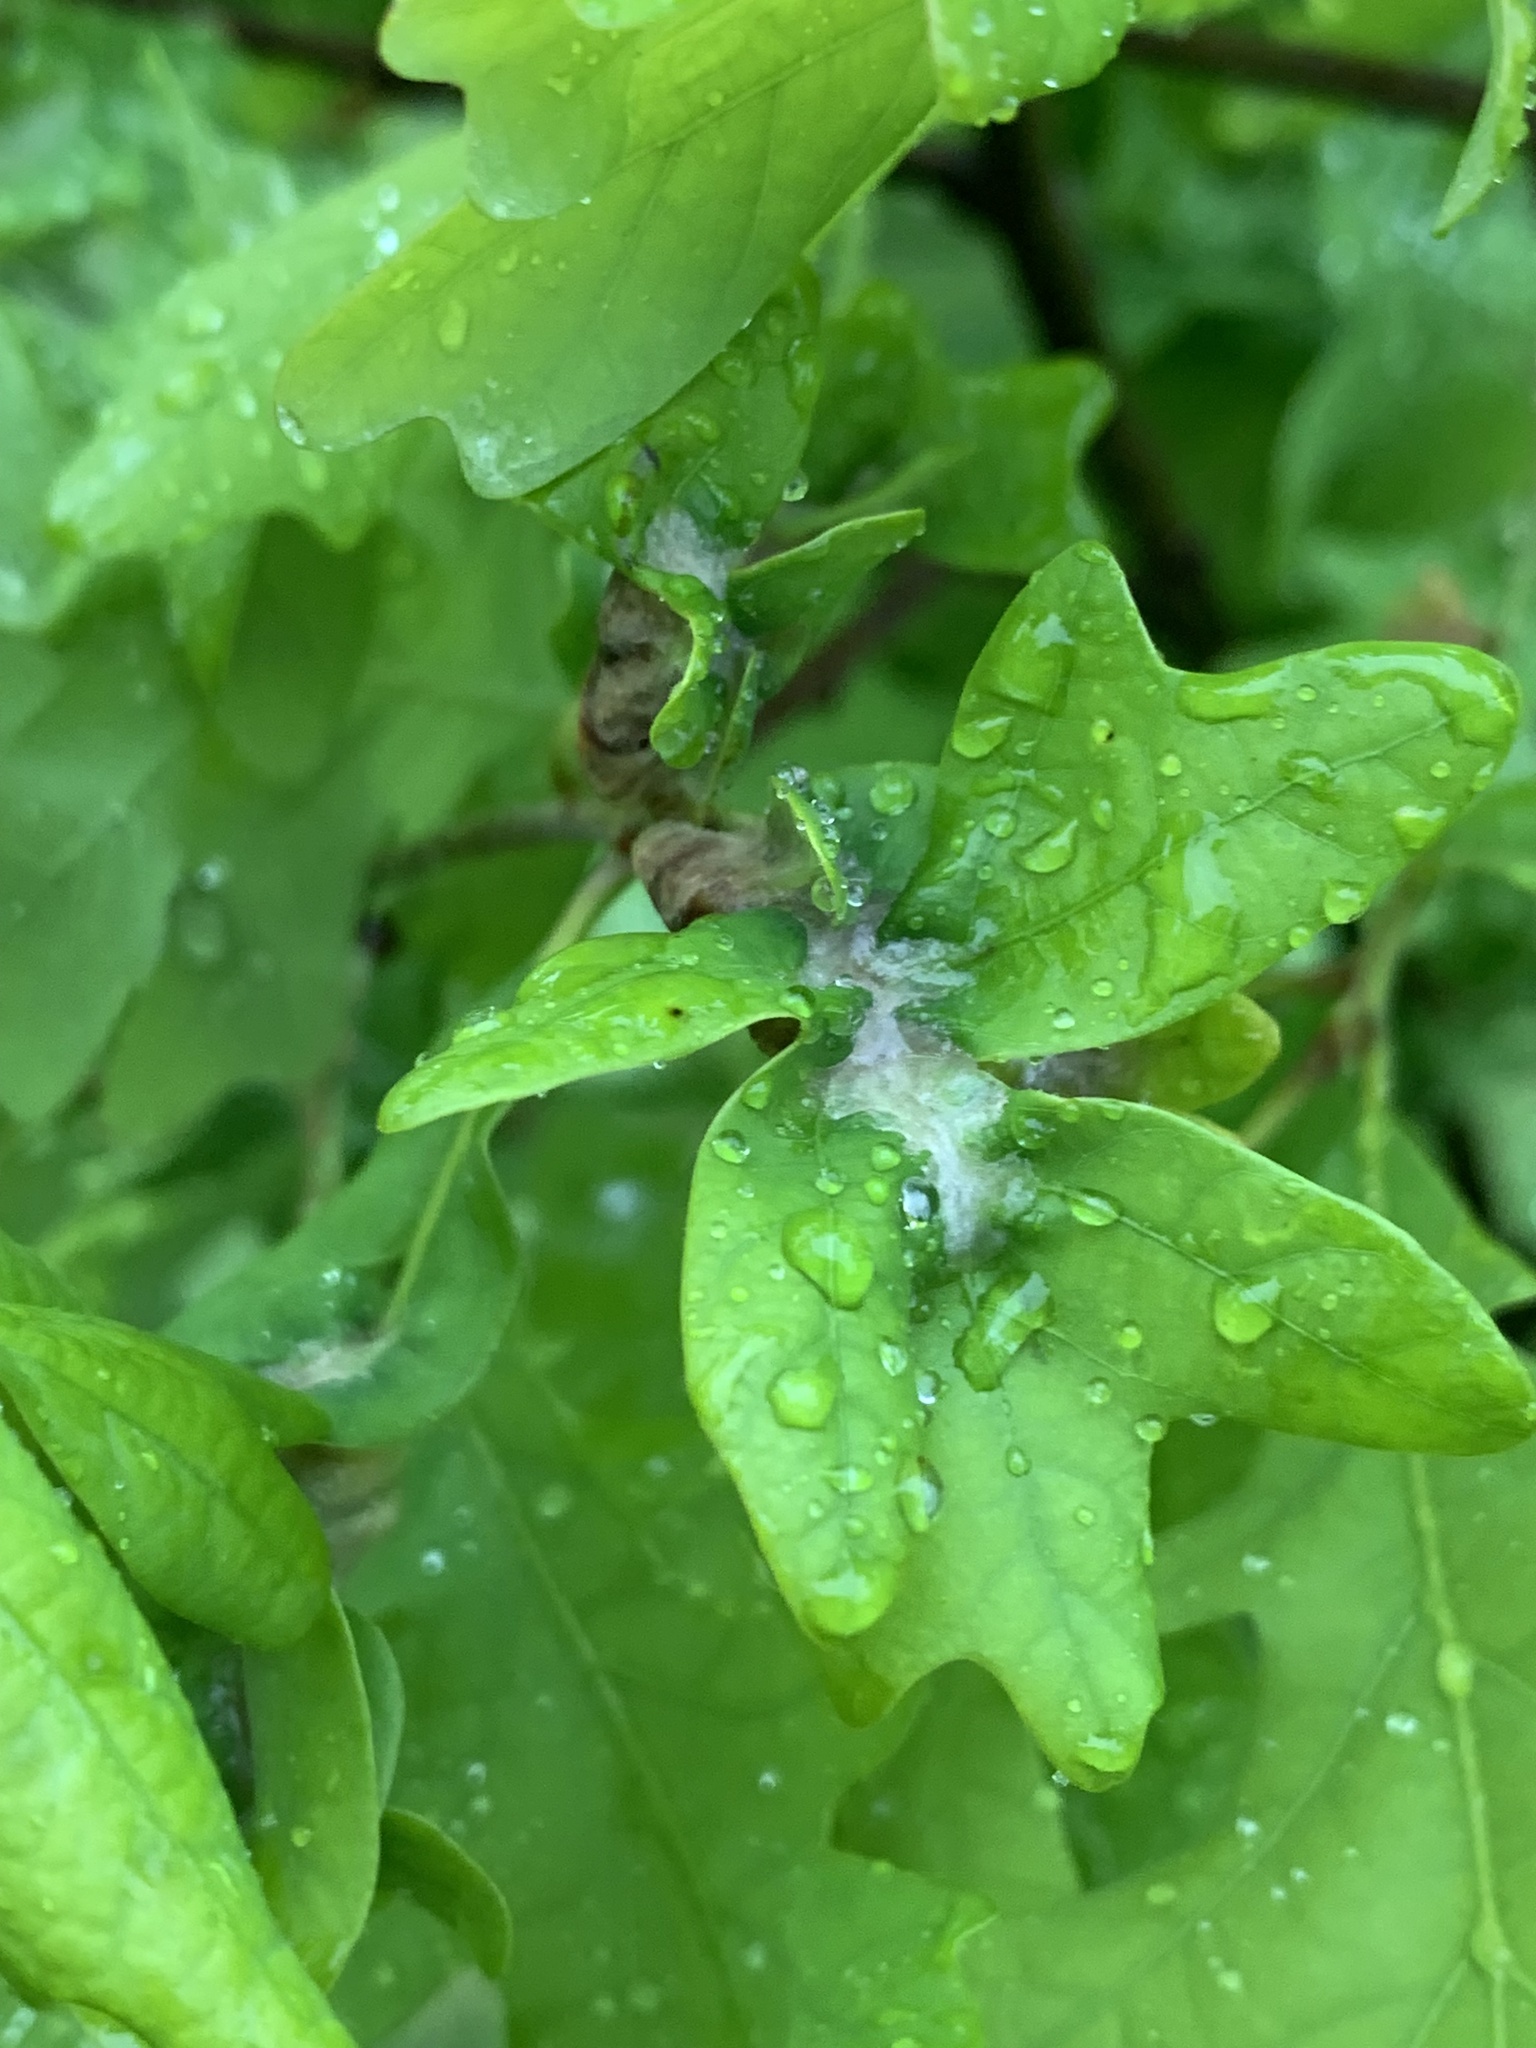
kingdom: Animalia
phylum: Arthropoda
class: Insecta
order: Diptera
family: Cecidomyiidae
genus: Macrodiplosis
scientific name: Macrodiplosis niveipila
